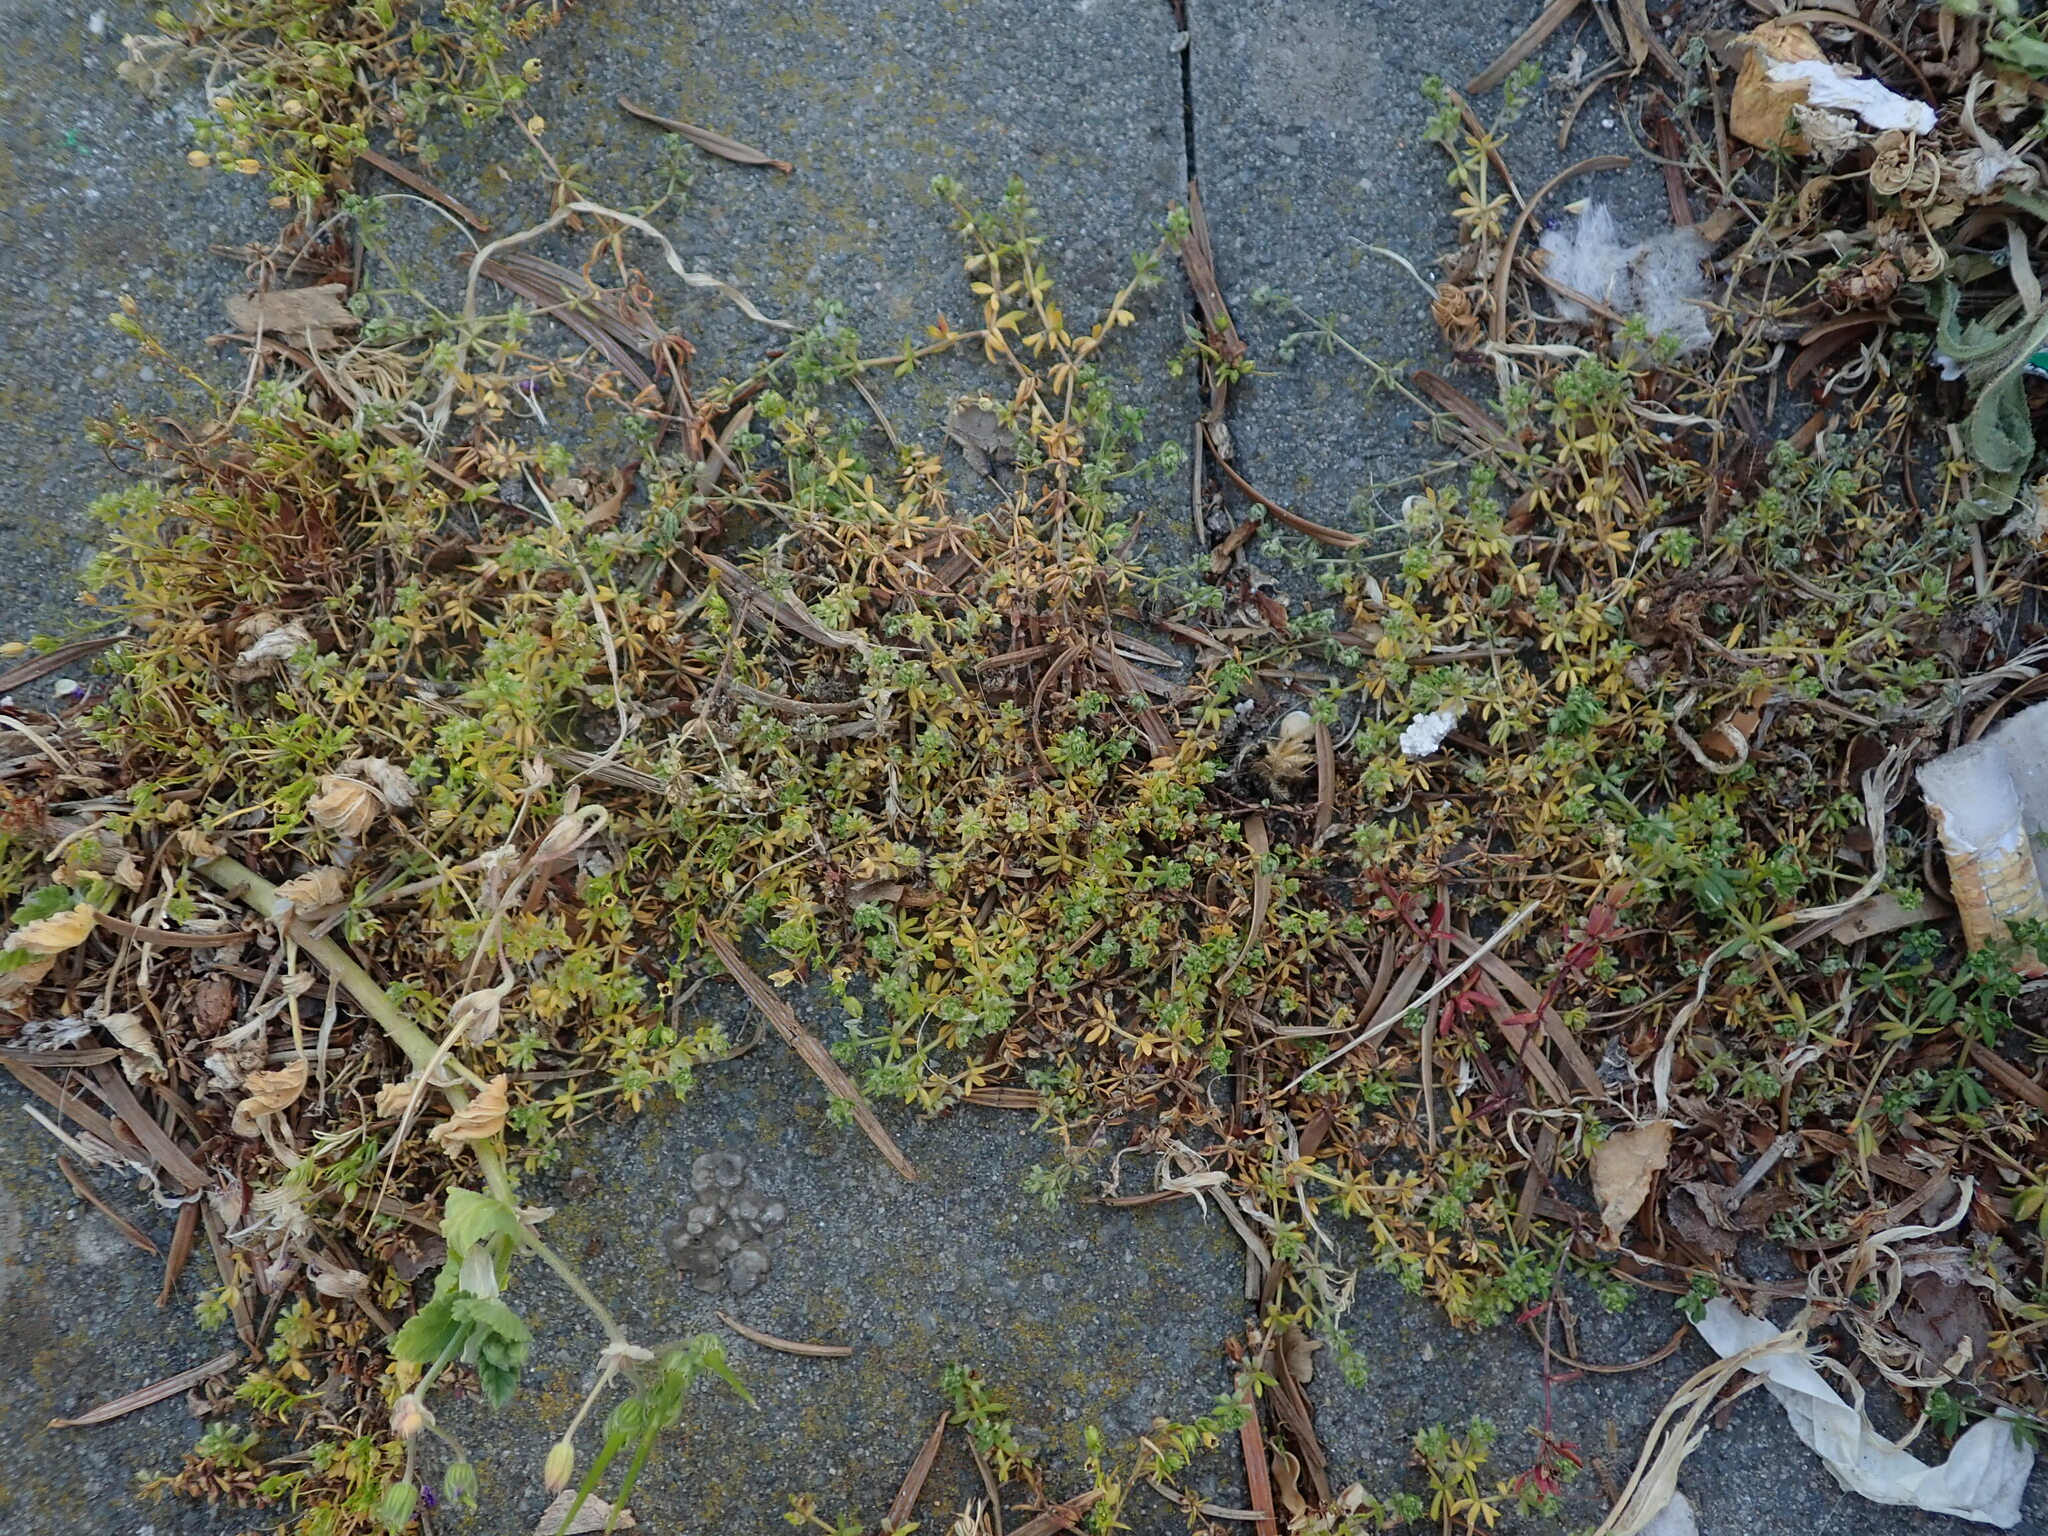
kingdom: Plantae
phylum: Tracheophyta
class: Magnoliopsida
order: Gentianales
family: Rubiaceae
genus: Galium
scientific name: Galium murale
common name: Yellow wall bedstraw
